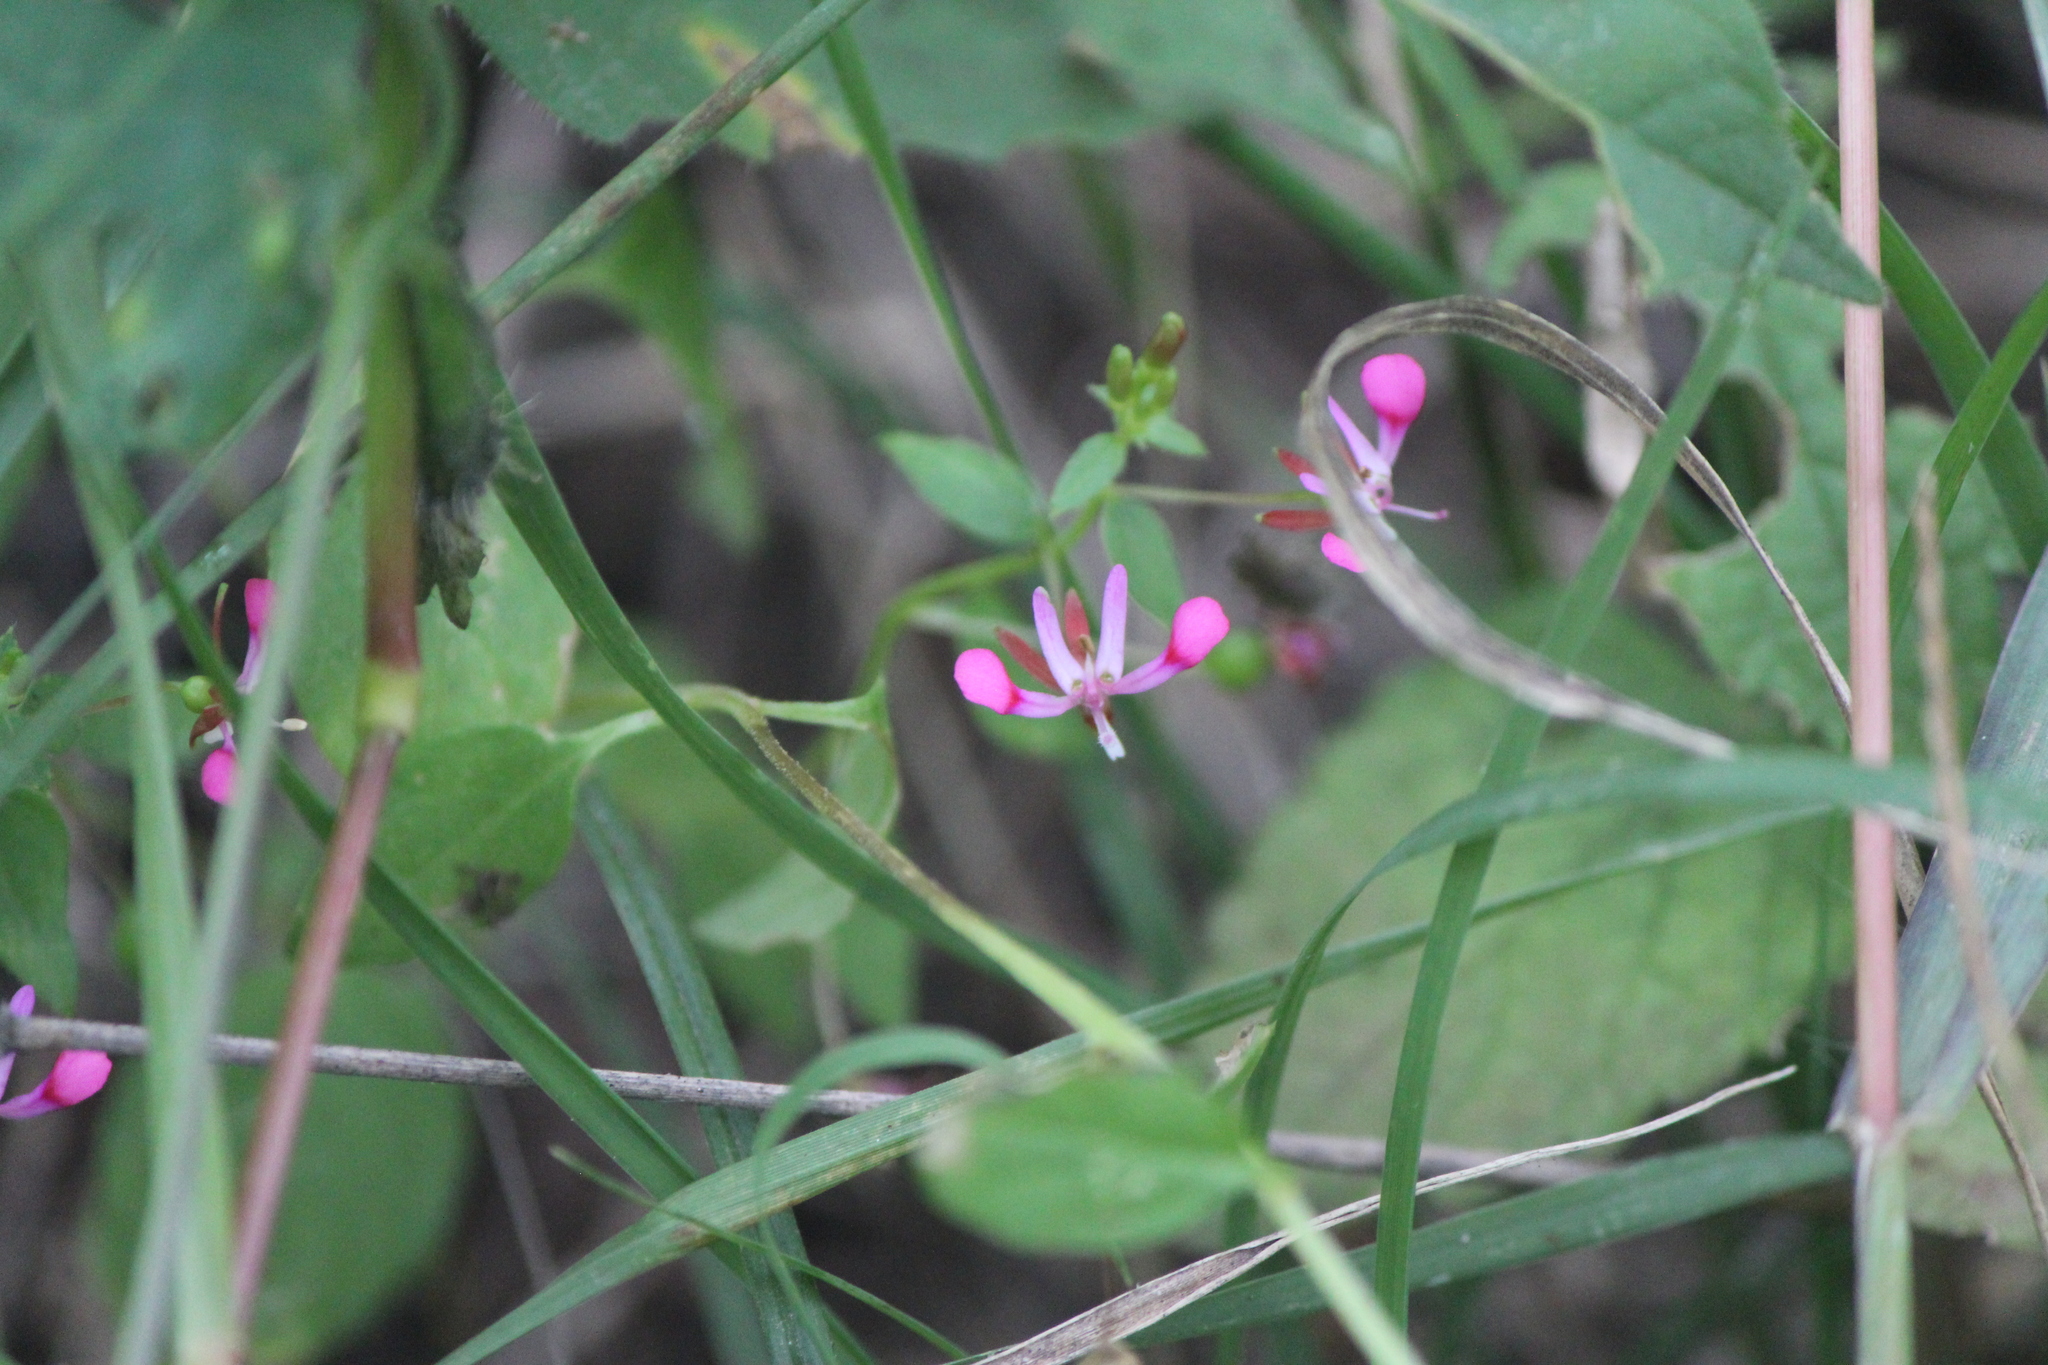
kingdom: Plantae
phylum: Tracheophyta
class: Magnoliopsida
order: Myrtales
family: Onagraceae
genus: Lopezia
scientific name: Lopezia racemosa
